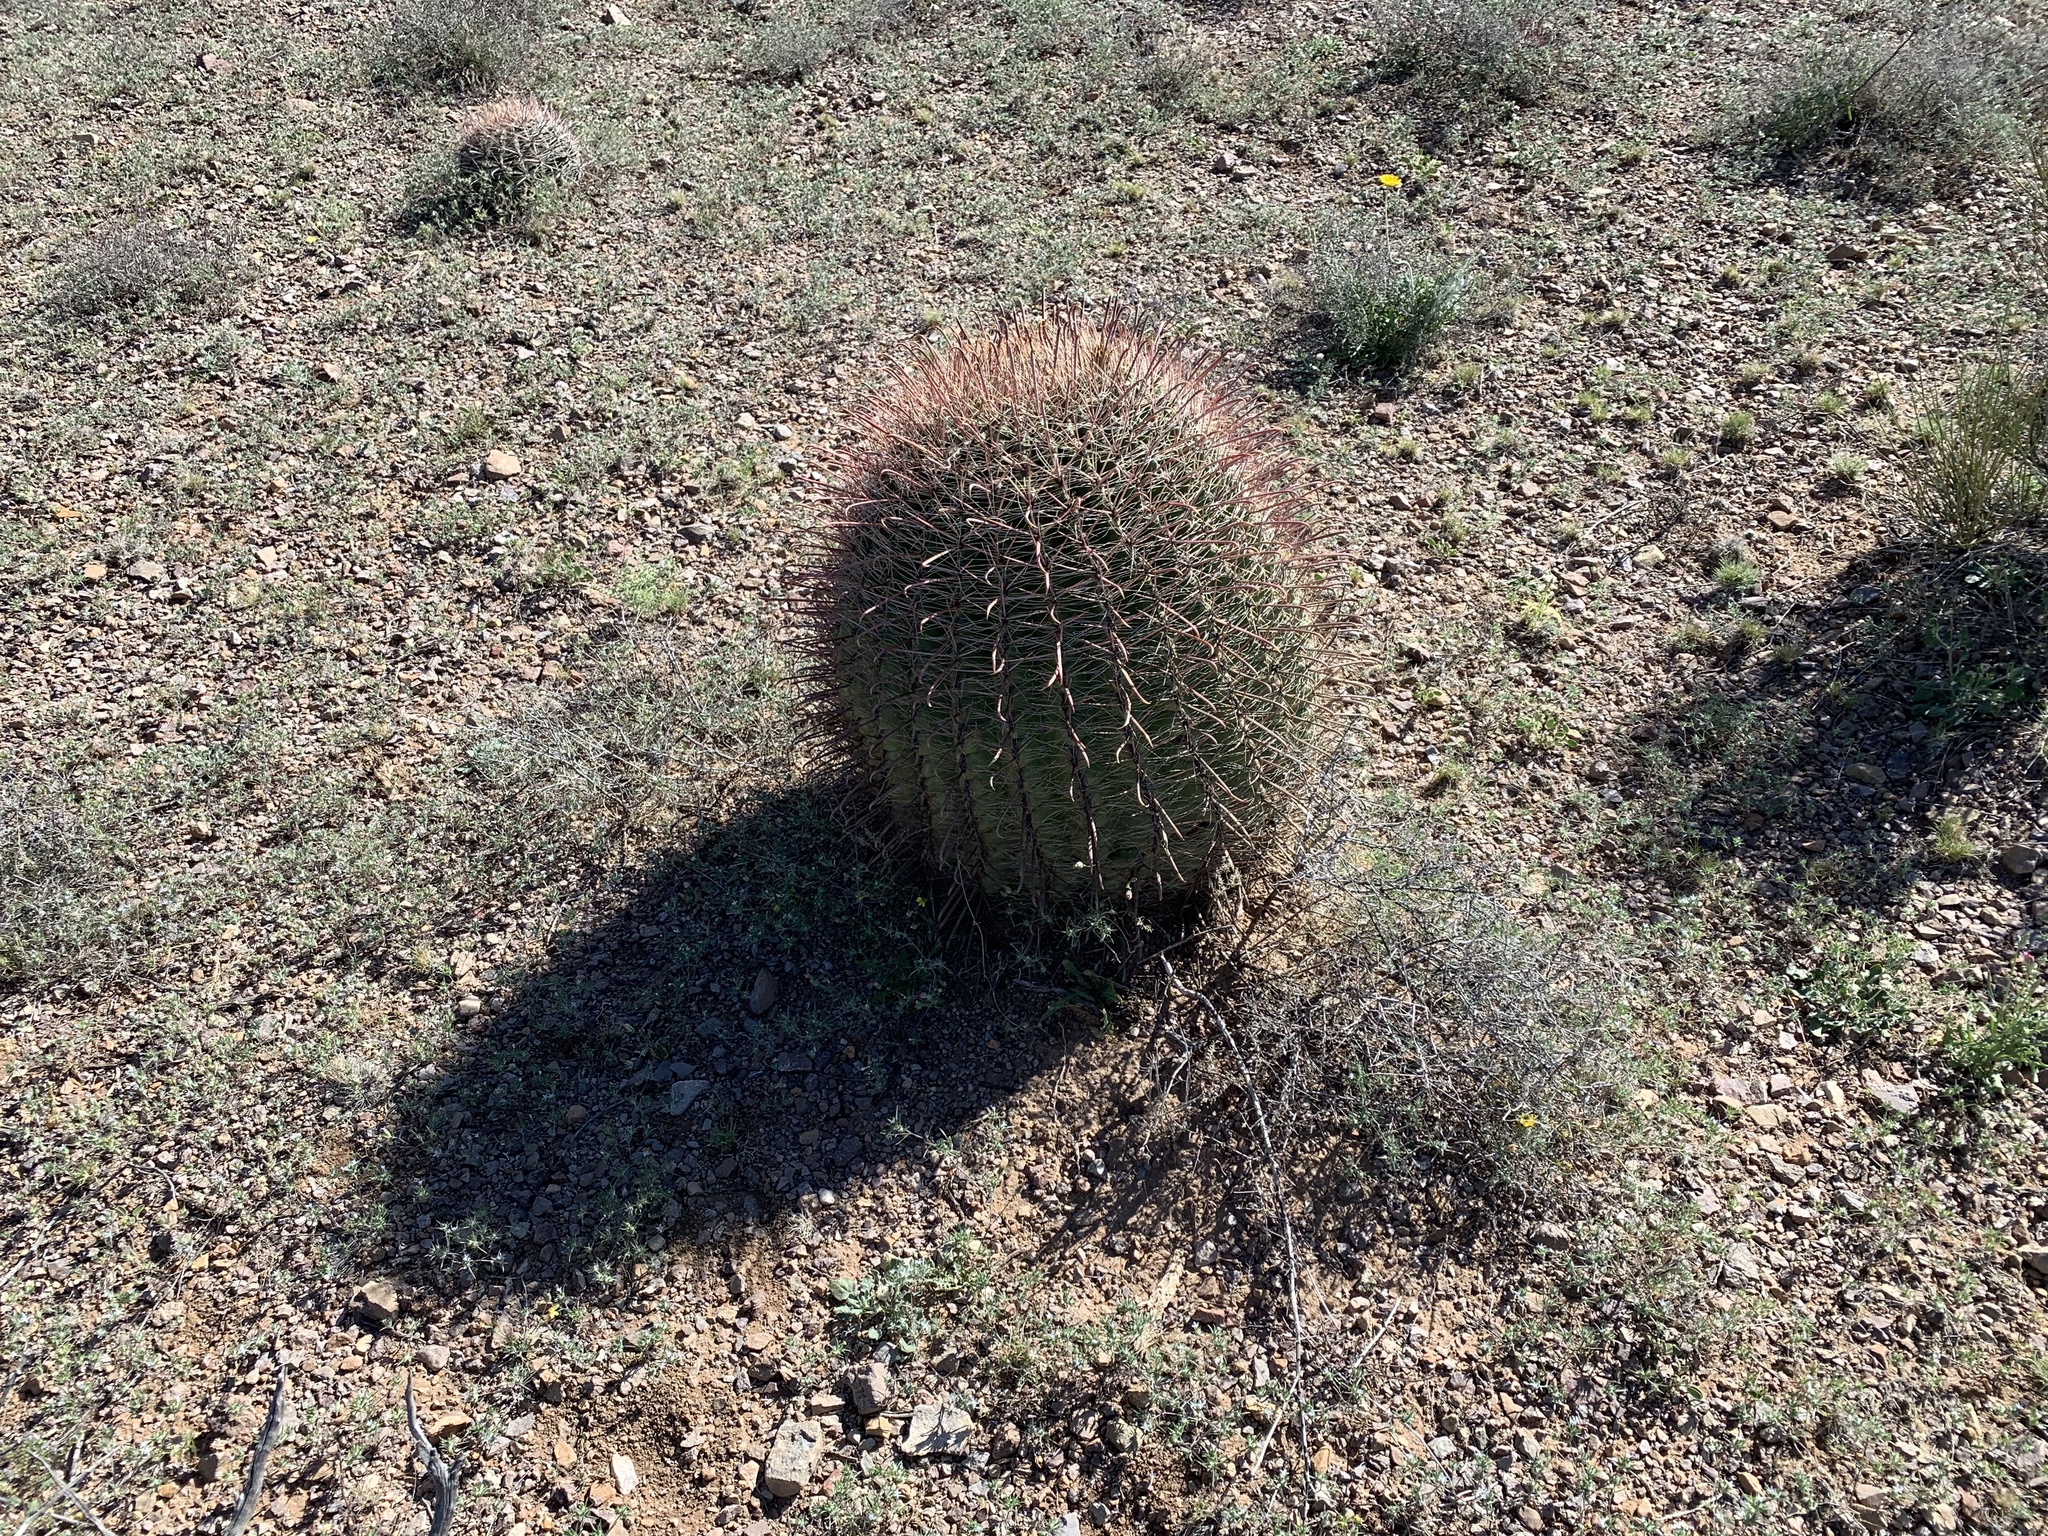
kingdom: Plantae
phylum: Tracheophyta
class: Magnoliopsida
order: Caryophyllales
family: Cactaceae
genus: Ferocactus
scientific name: Ferocactus wislizeni
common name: Candy barrel cactus
